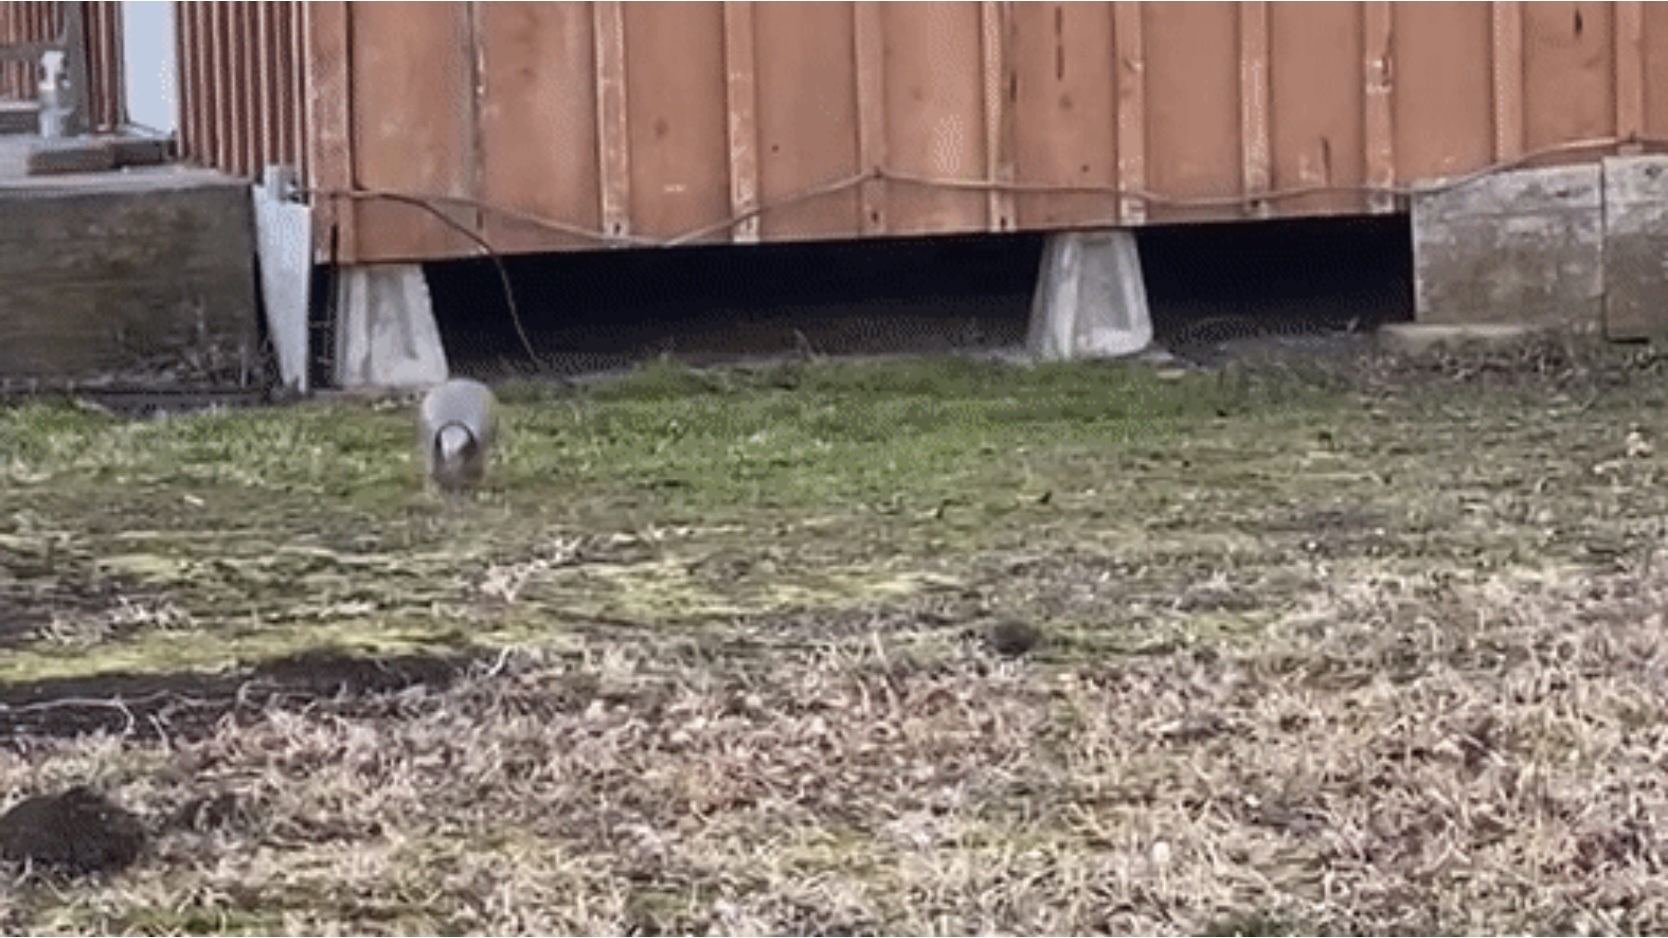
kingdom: Animalia
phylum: Chordata
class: Mammalia
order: Cingulata
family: Dasypodidae
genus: Dasypus
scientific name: Dasypus novemcinctus
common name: Nine-banded armadillo
